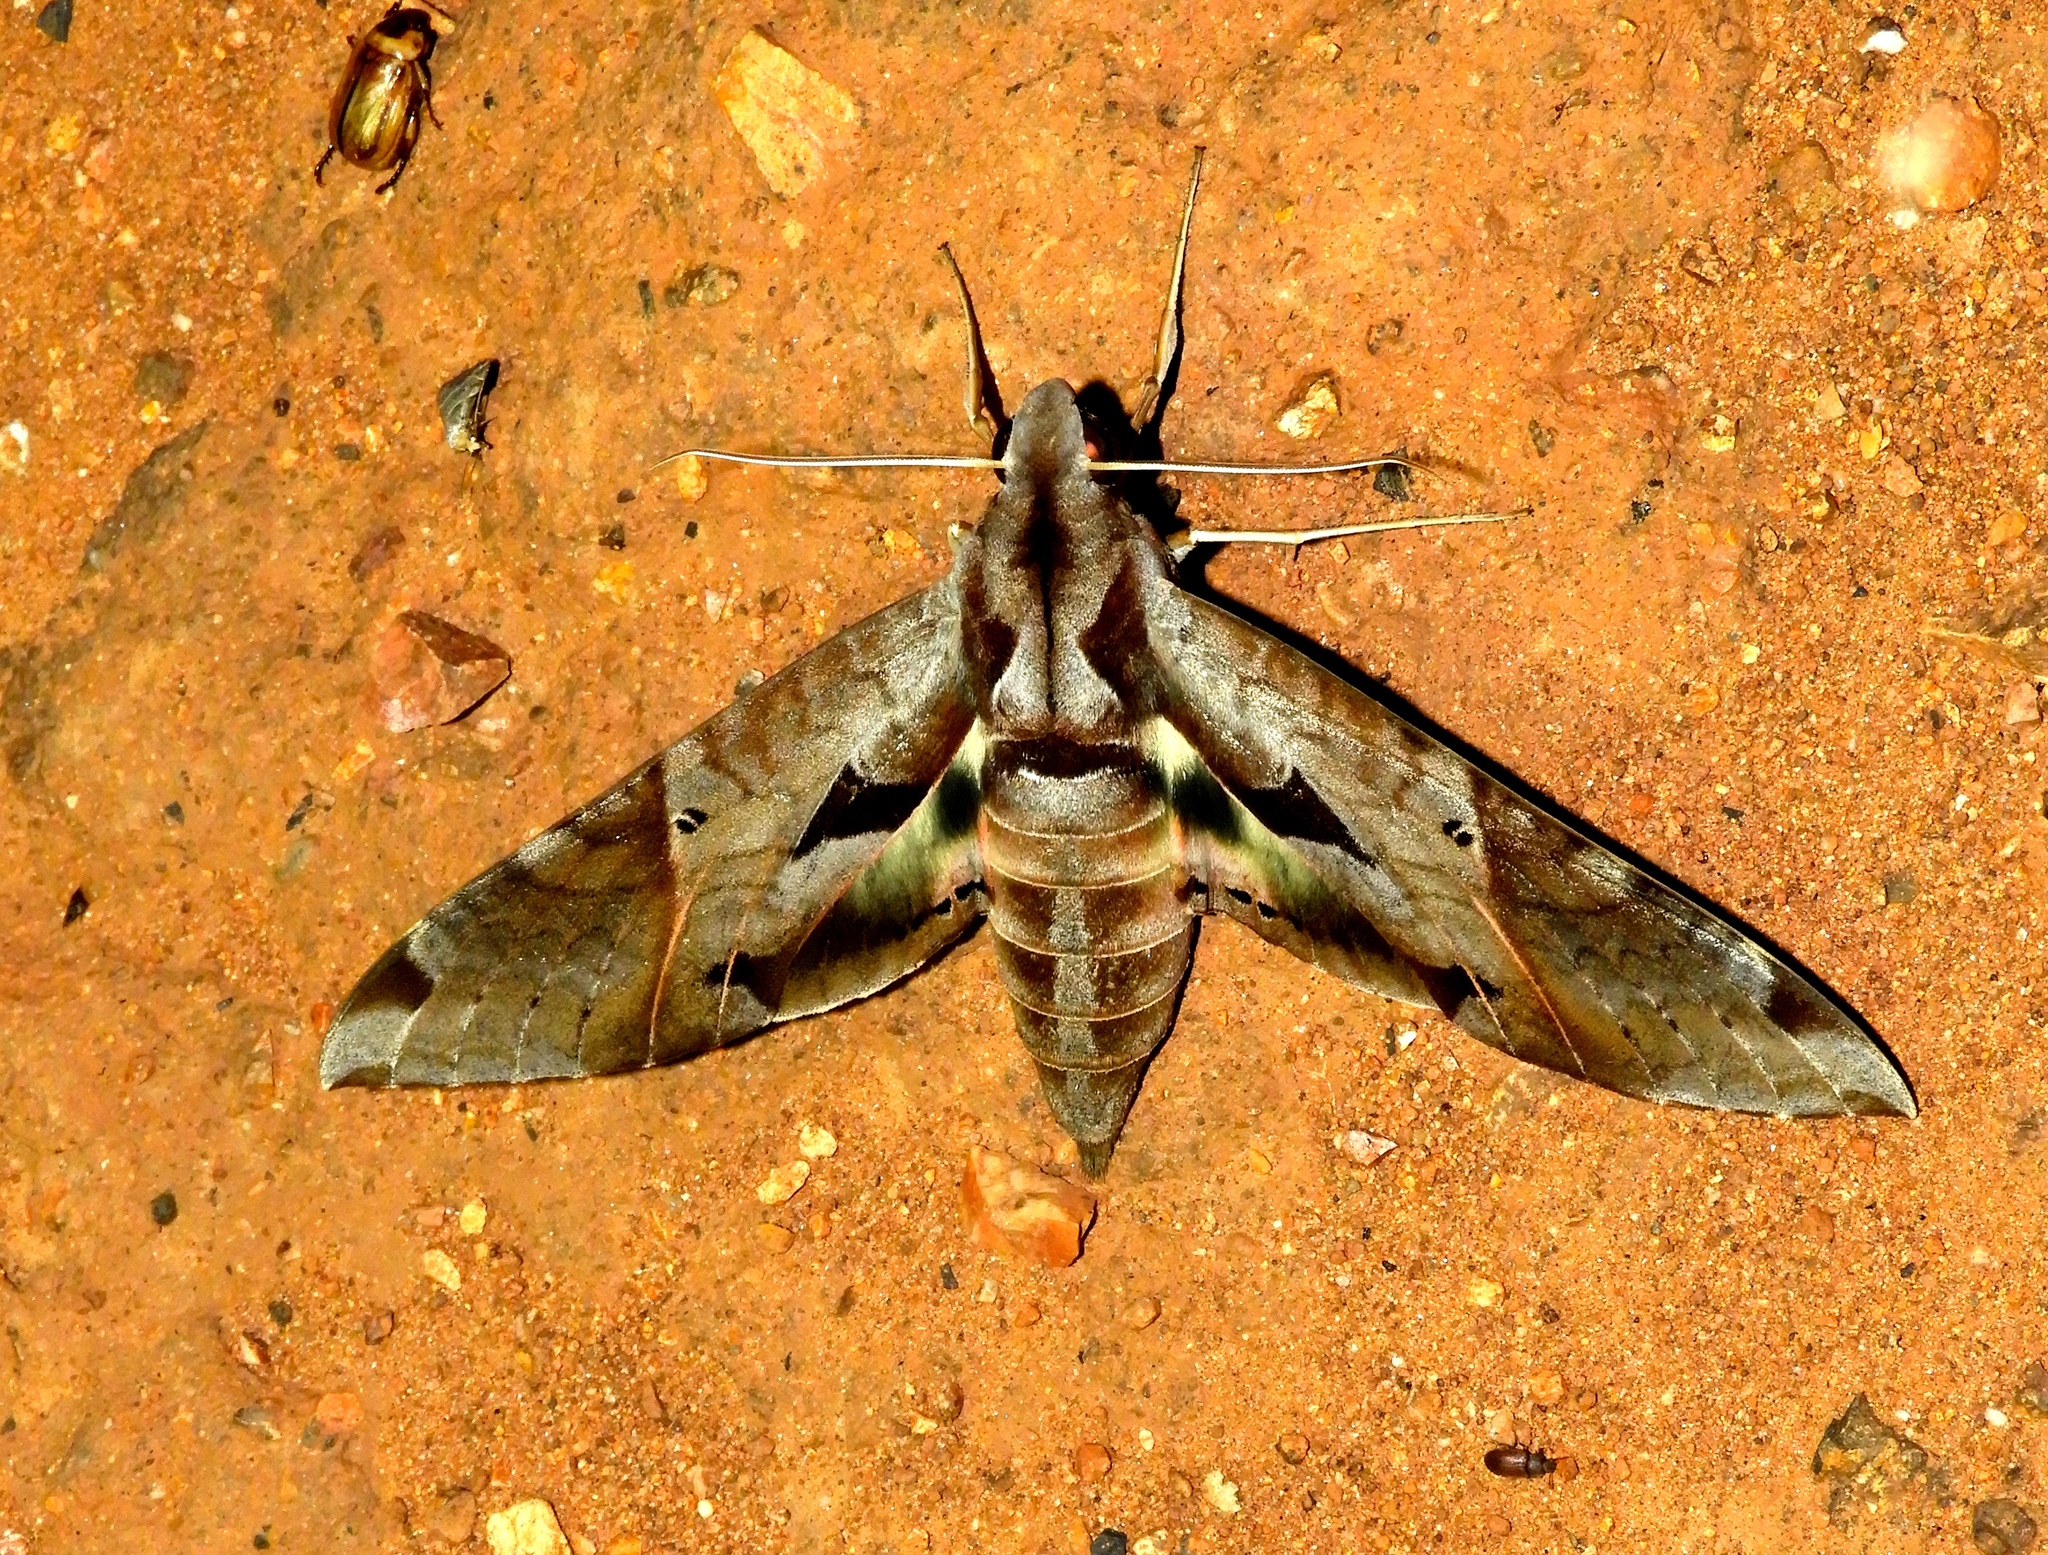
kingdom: Animalia
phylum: Arthropoda
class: Insecta
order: Lepidoptera
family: Sphingidae
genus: Eumorpha
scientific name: Eumorpha satellitia
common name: Satellite sphinx
